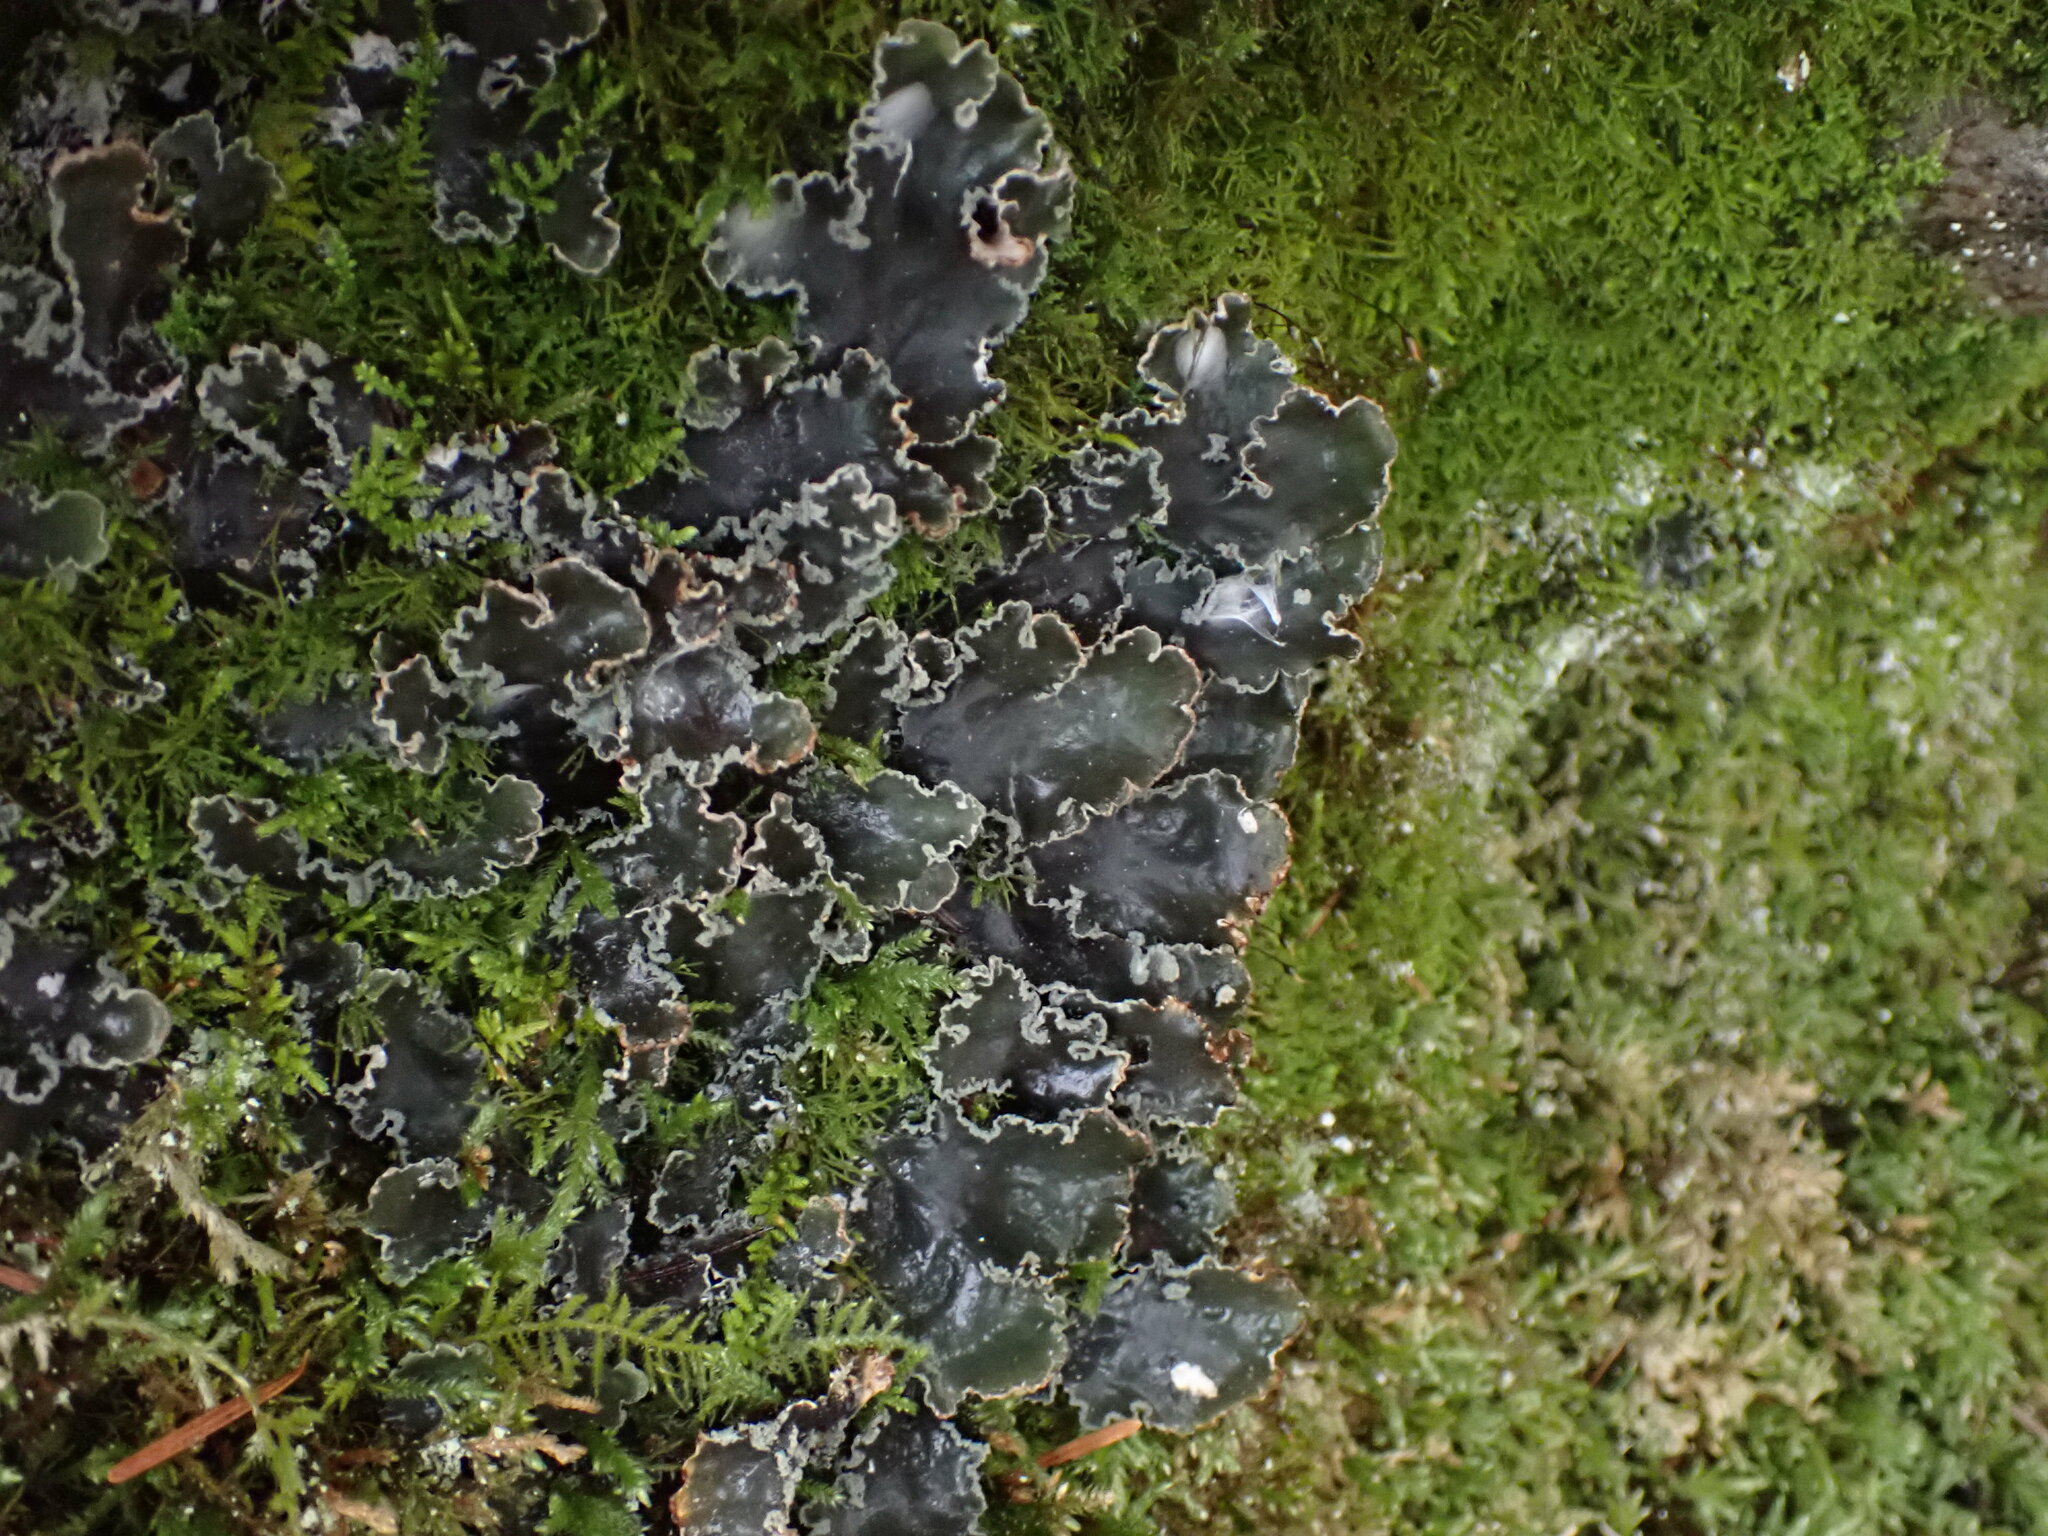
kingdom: Fungi
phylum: Ascomycota
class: Lecanoromycetes
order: Peltigerales
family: Peltigeraceae
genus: Peltigera
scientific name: Peltigera collina
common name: Gritty tree pelt lichen
